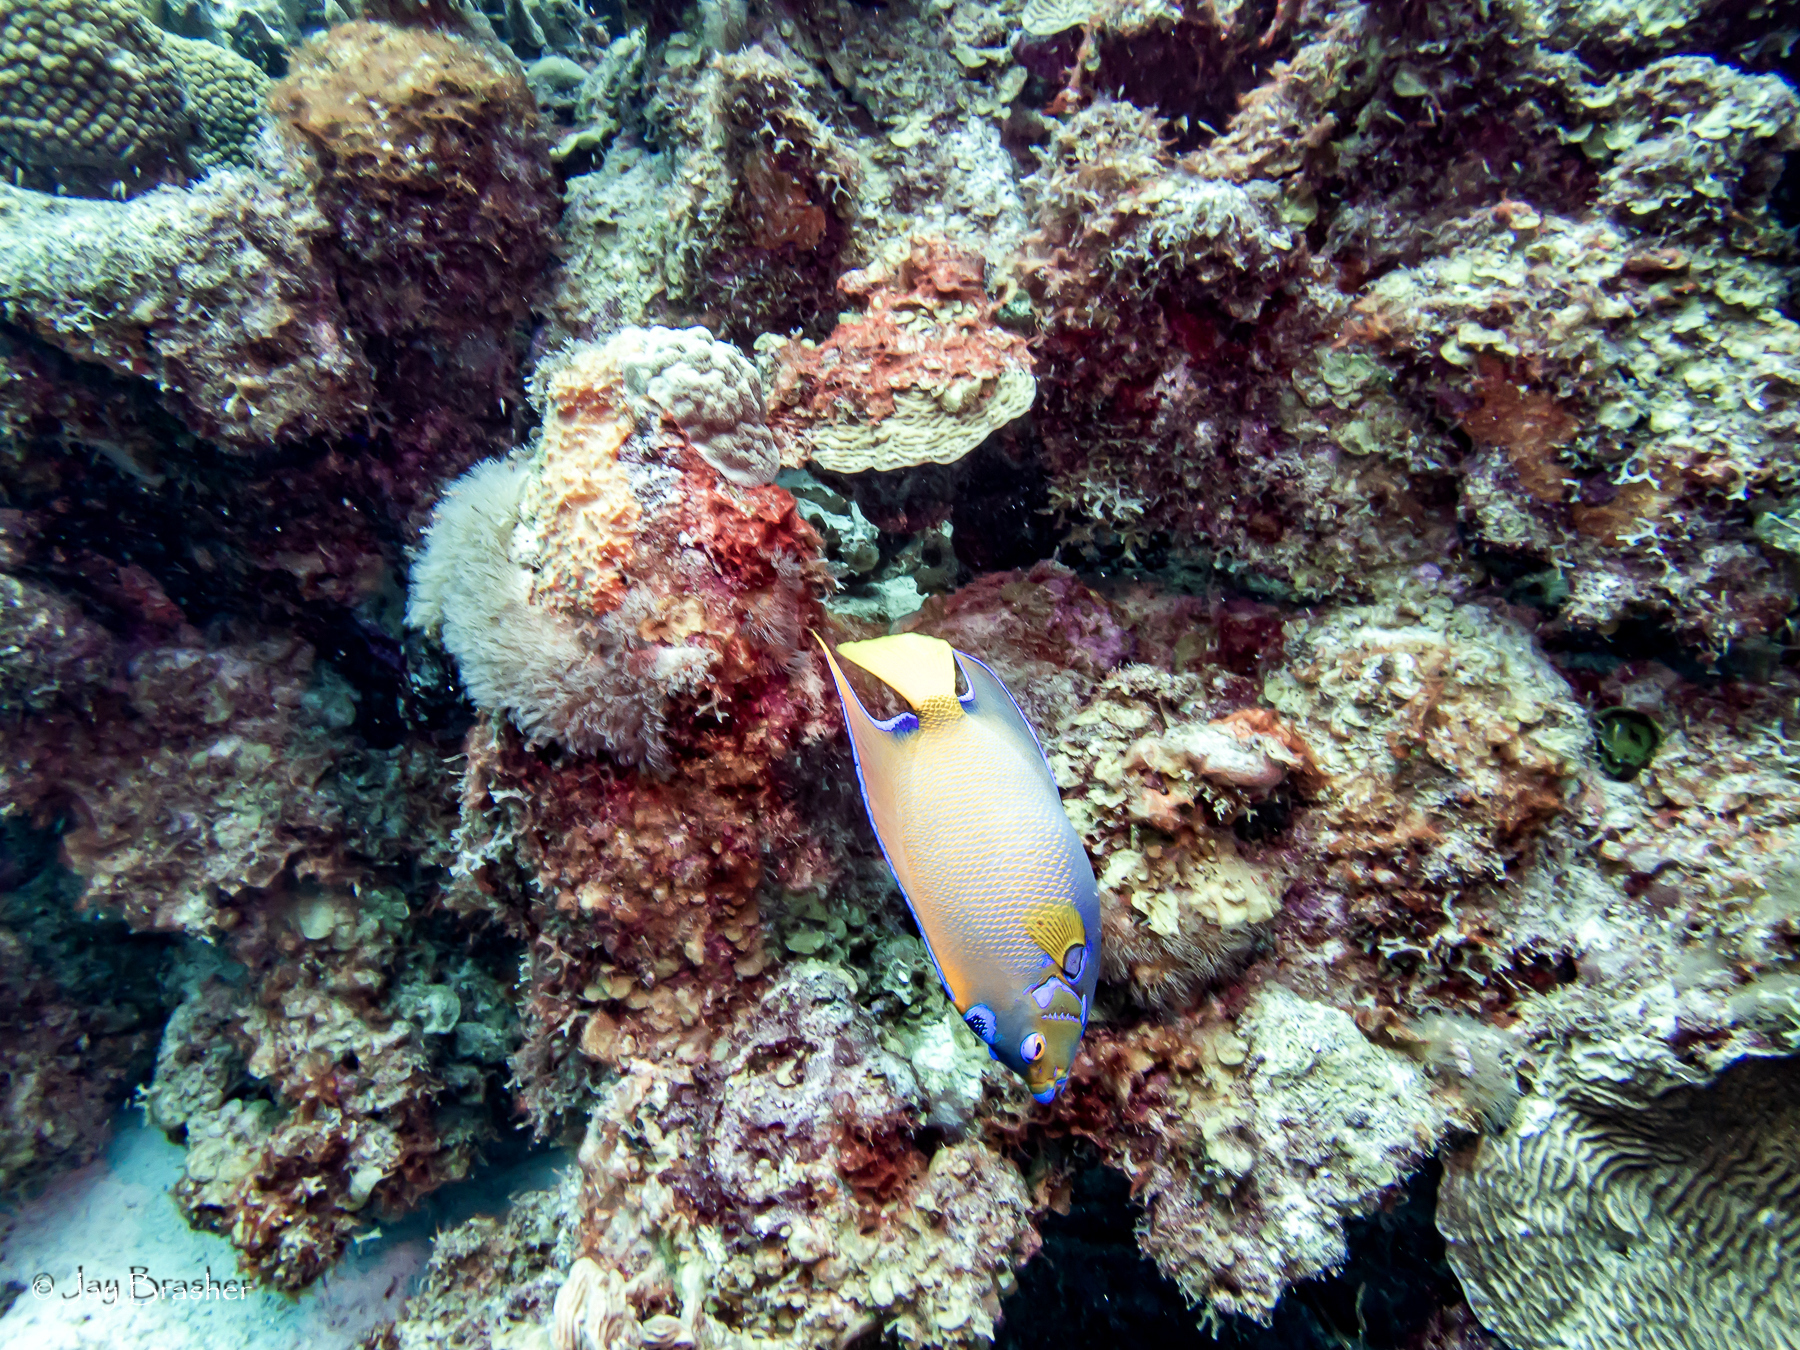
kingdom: Animalia
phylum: Chordata
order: Perciformes
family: Pomacanthidae
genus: Holacanthus
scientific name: Holacanthus ciliaris
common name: Queen angelfish
